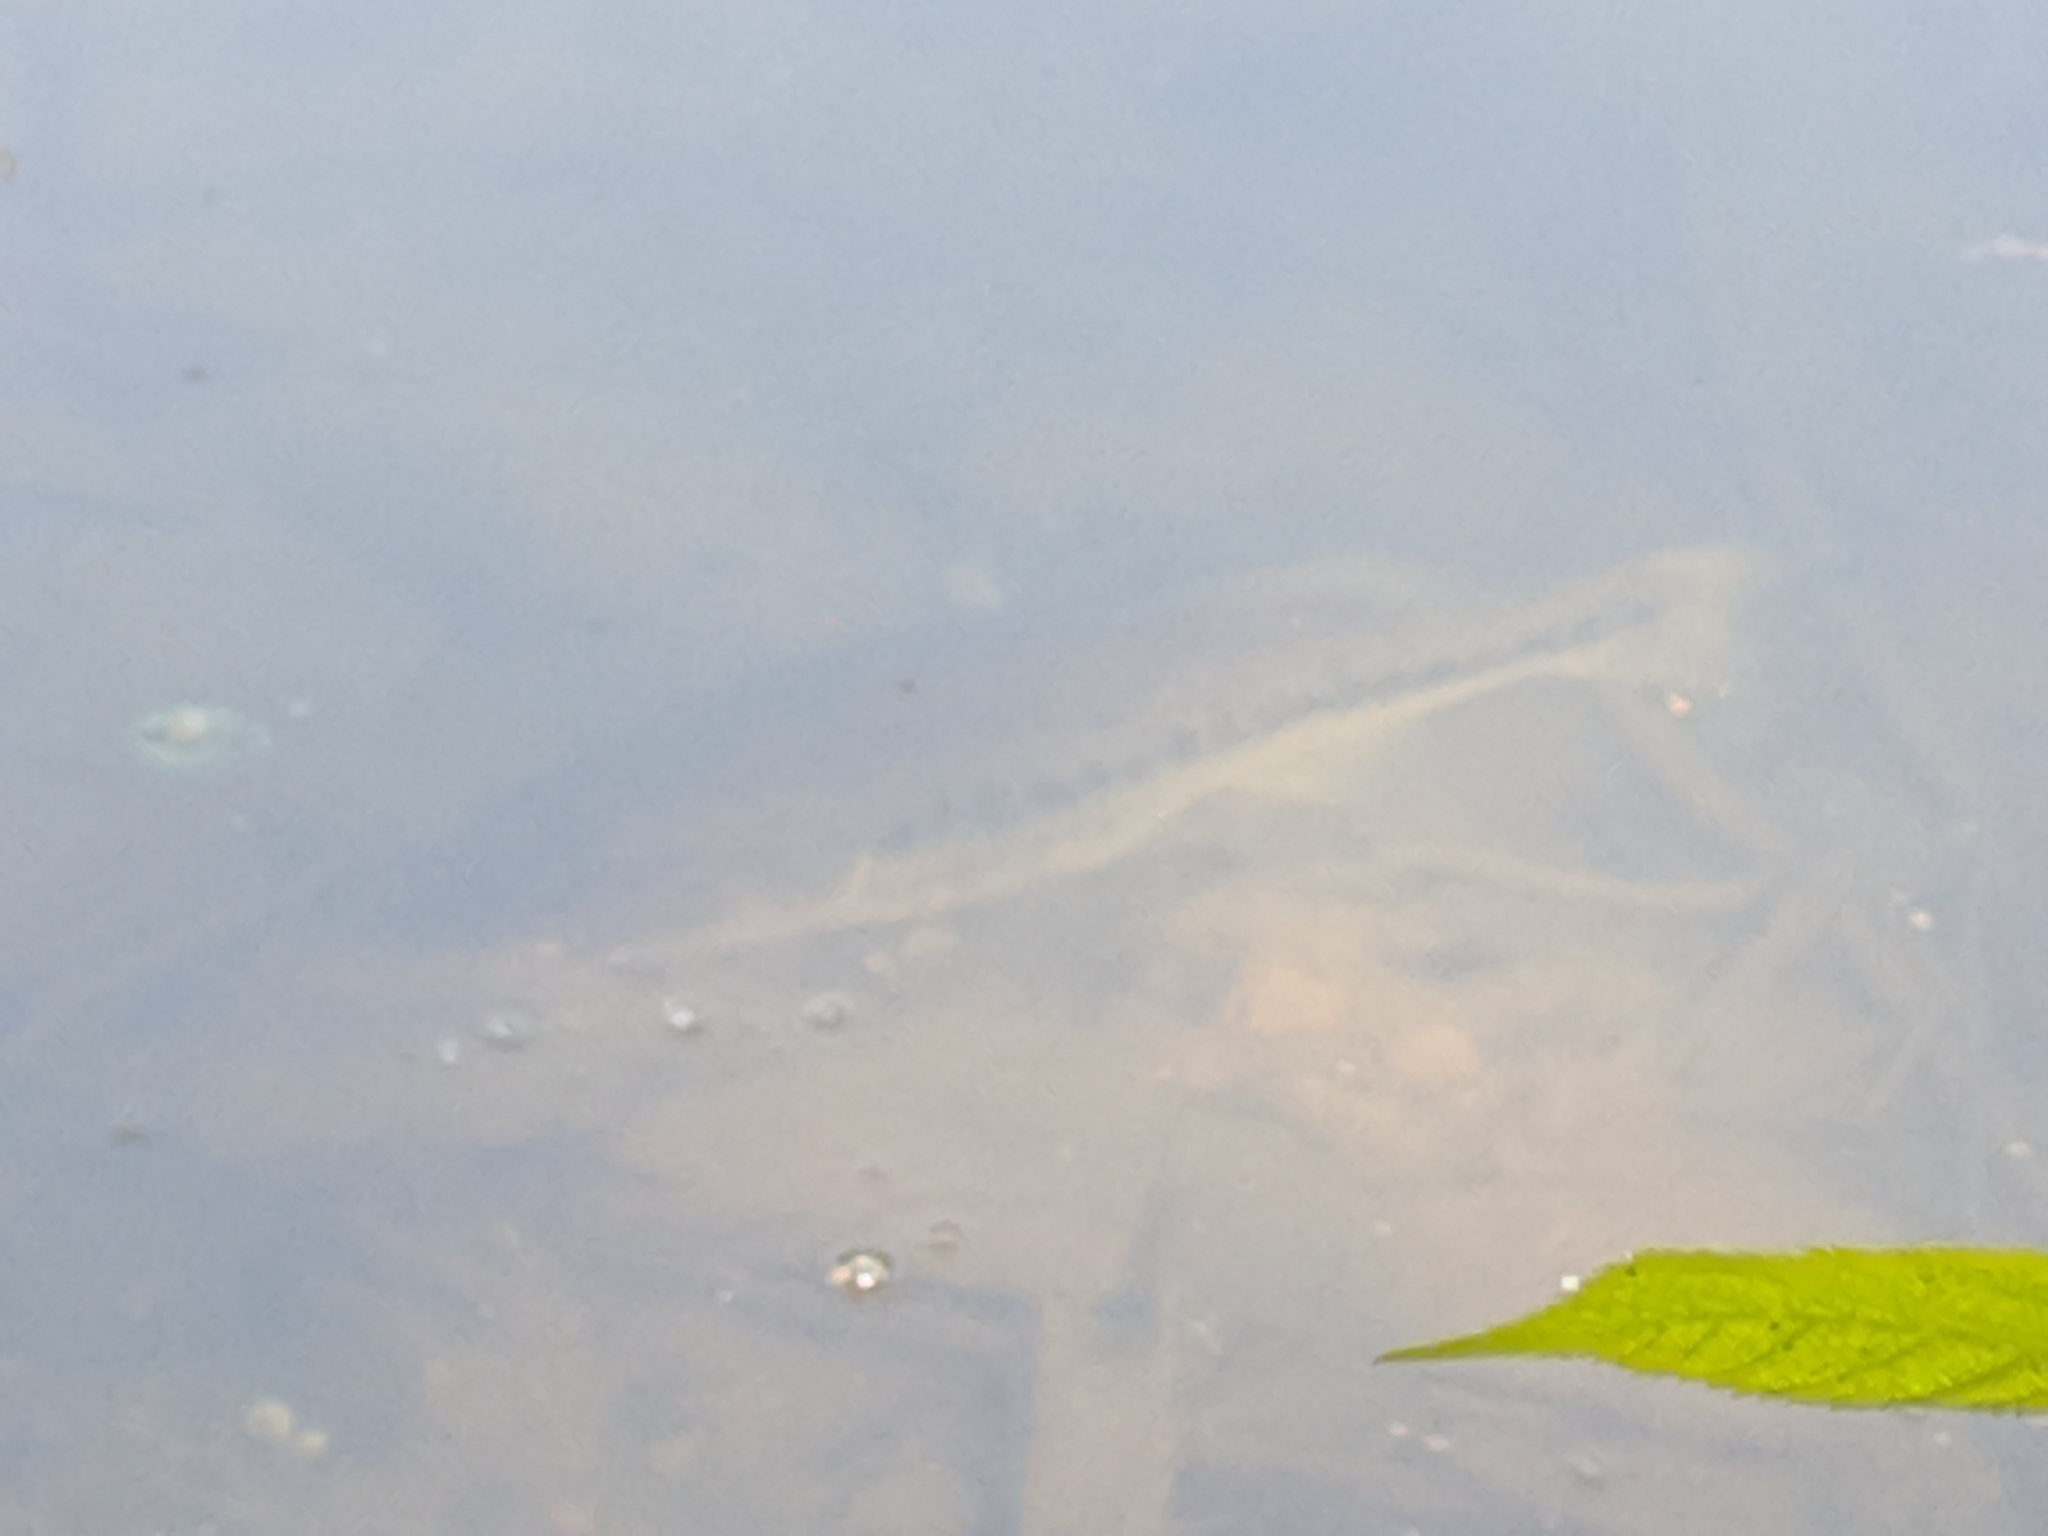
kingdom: Animalia
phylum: Chordata
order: Perciformes
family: Centrarchidae
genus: Micropterus
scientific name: Micropterus
